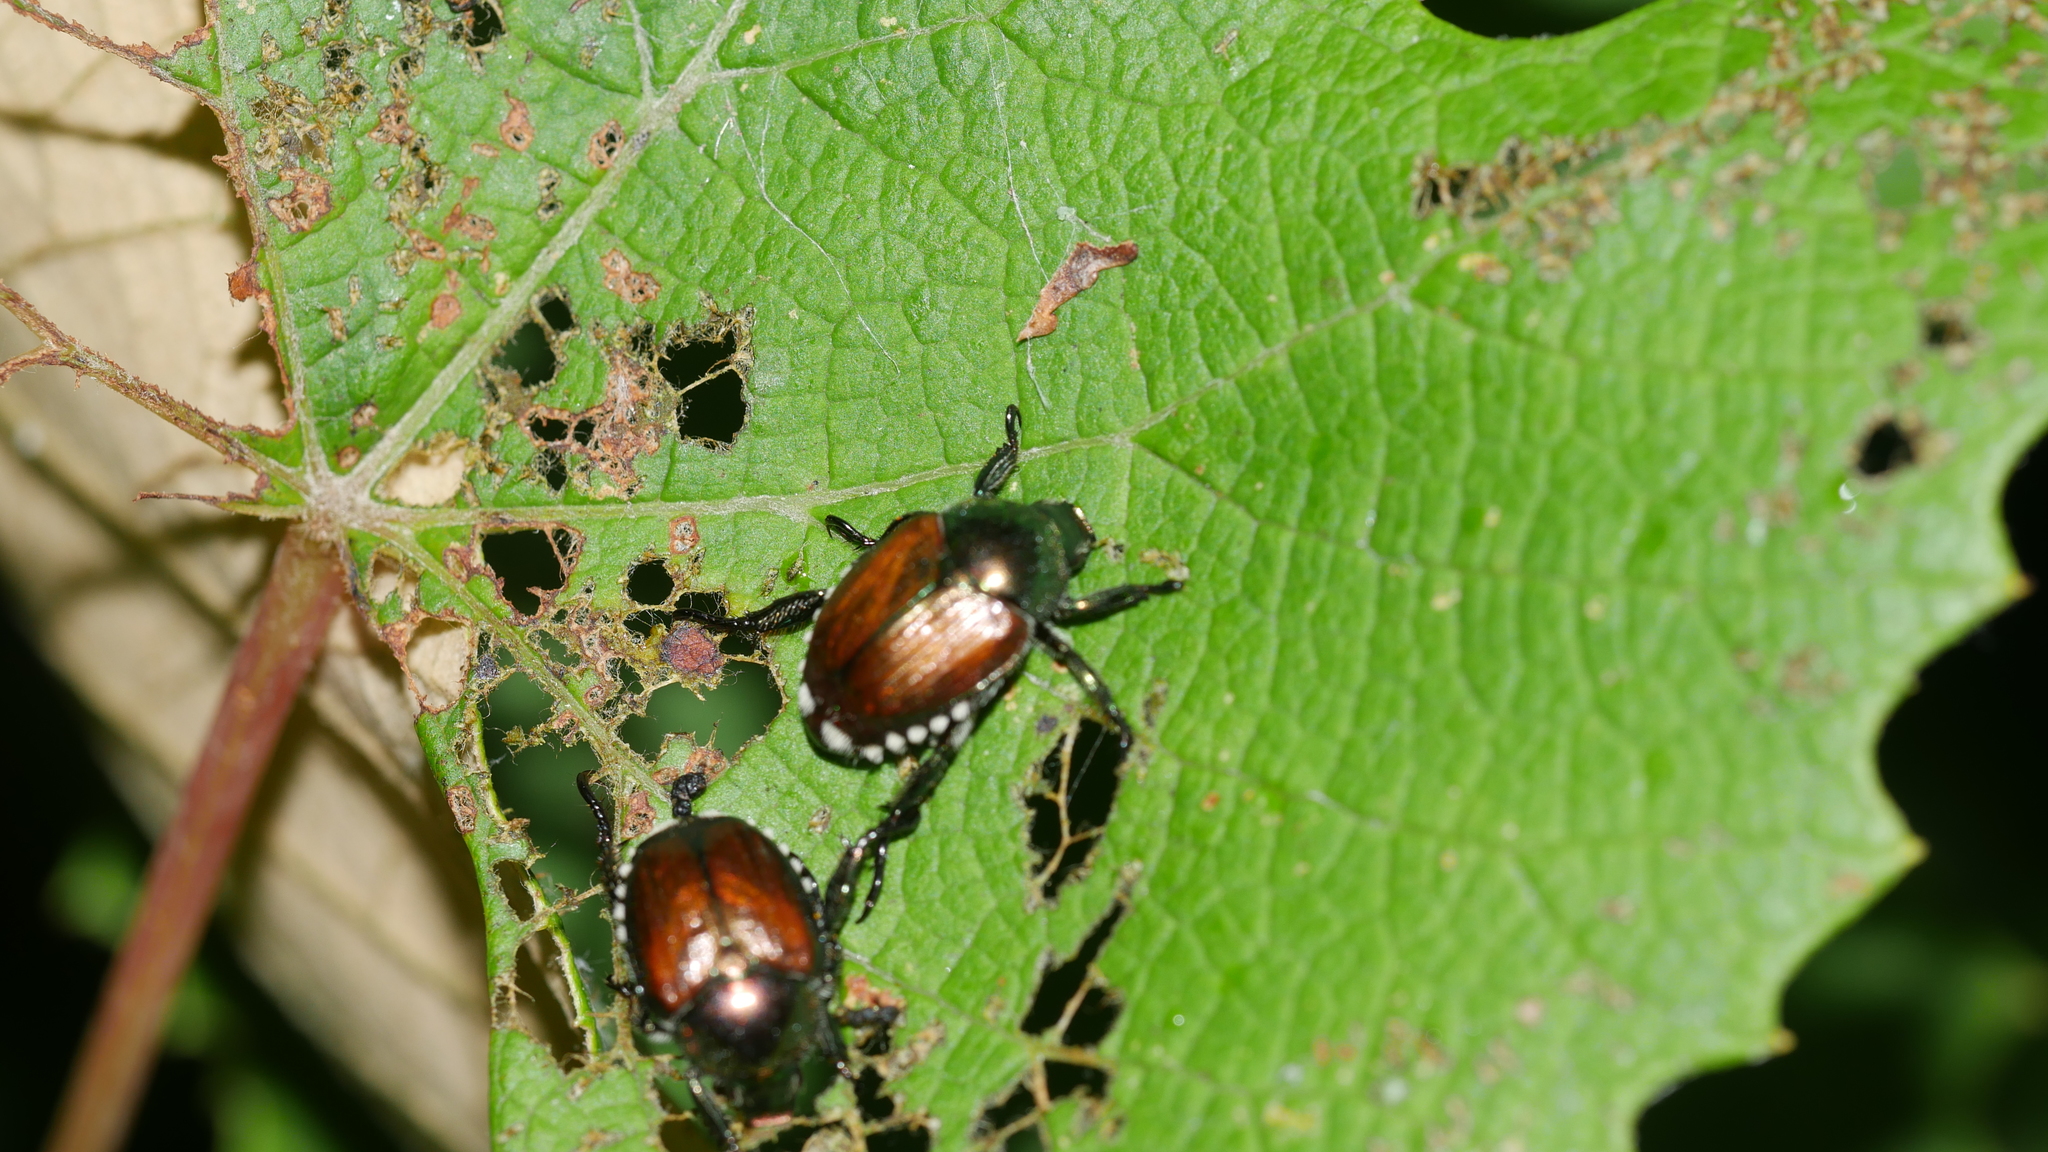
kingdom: Animalia
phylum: Arthropoda
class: Insecta
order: Coleoptera
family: Scarabaeidae
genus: Popillia
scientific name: Popillia japonica
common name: Japanese beetle
